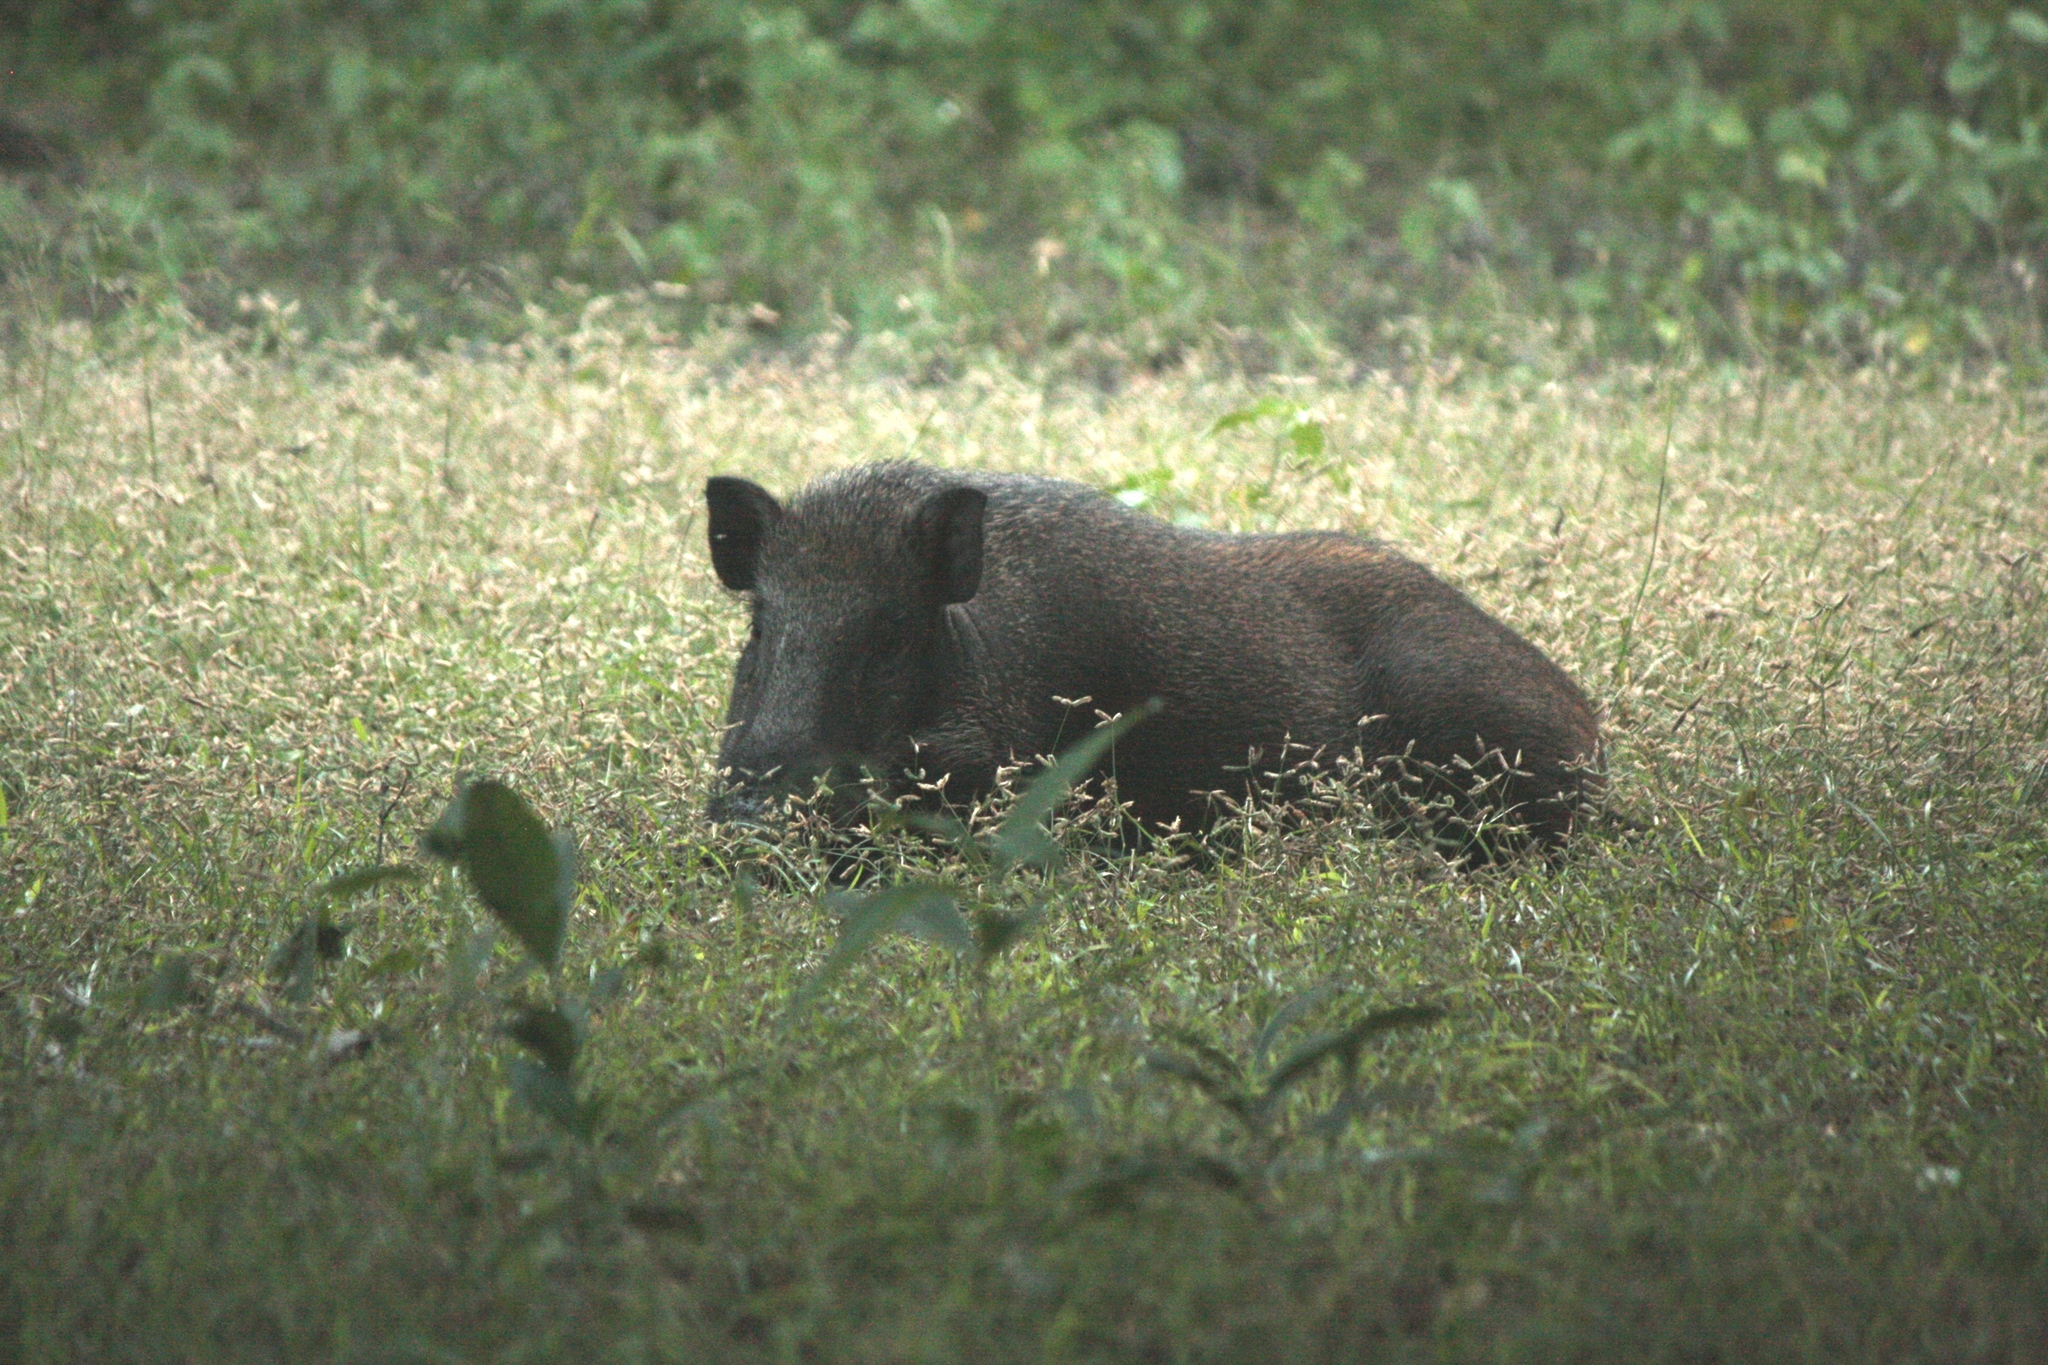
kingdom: Animalia
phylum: Chordata
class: Mammalia
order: Artiodactyla
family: Suidae
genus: Sus
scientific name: Sus scrofa
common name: Wild boar
